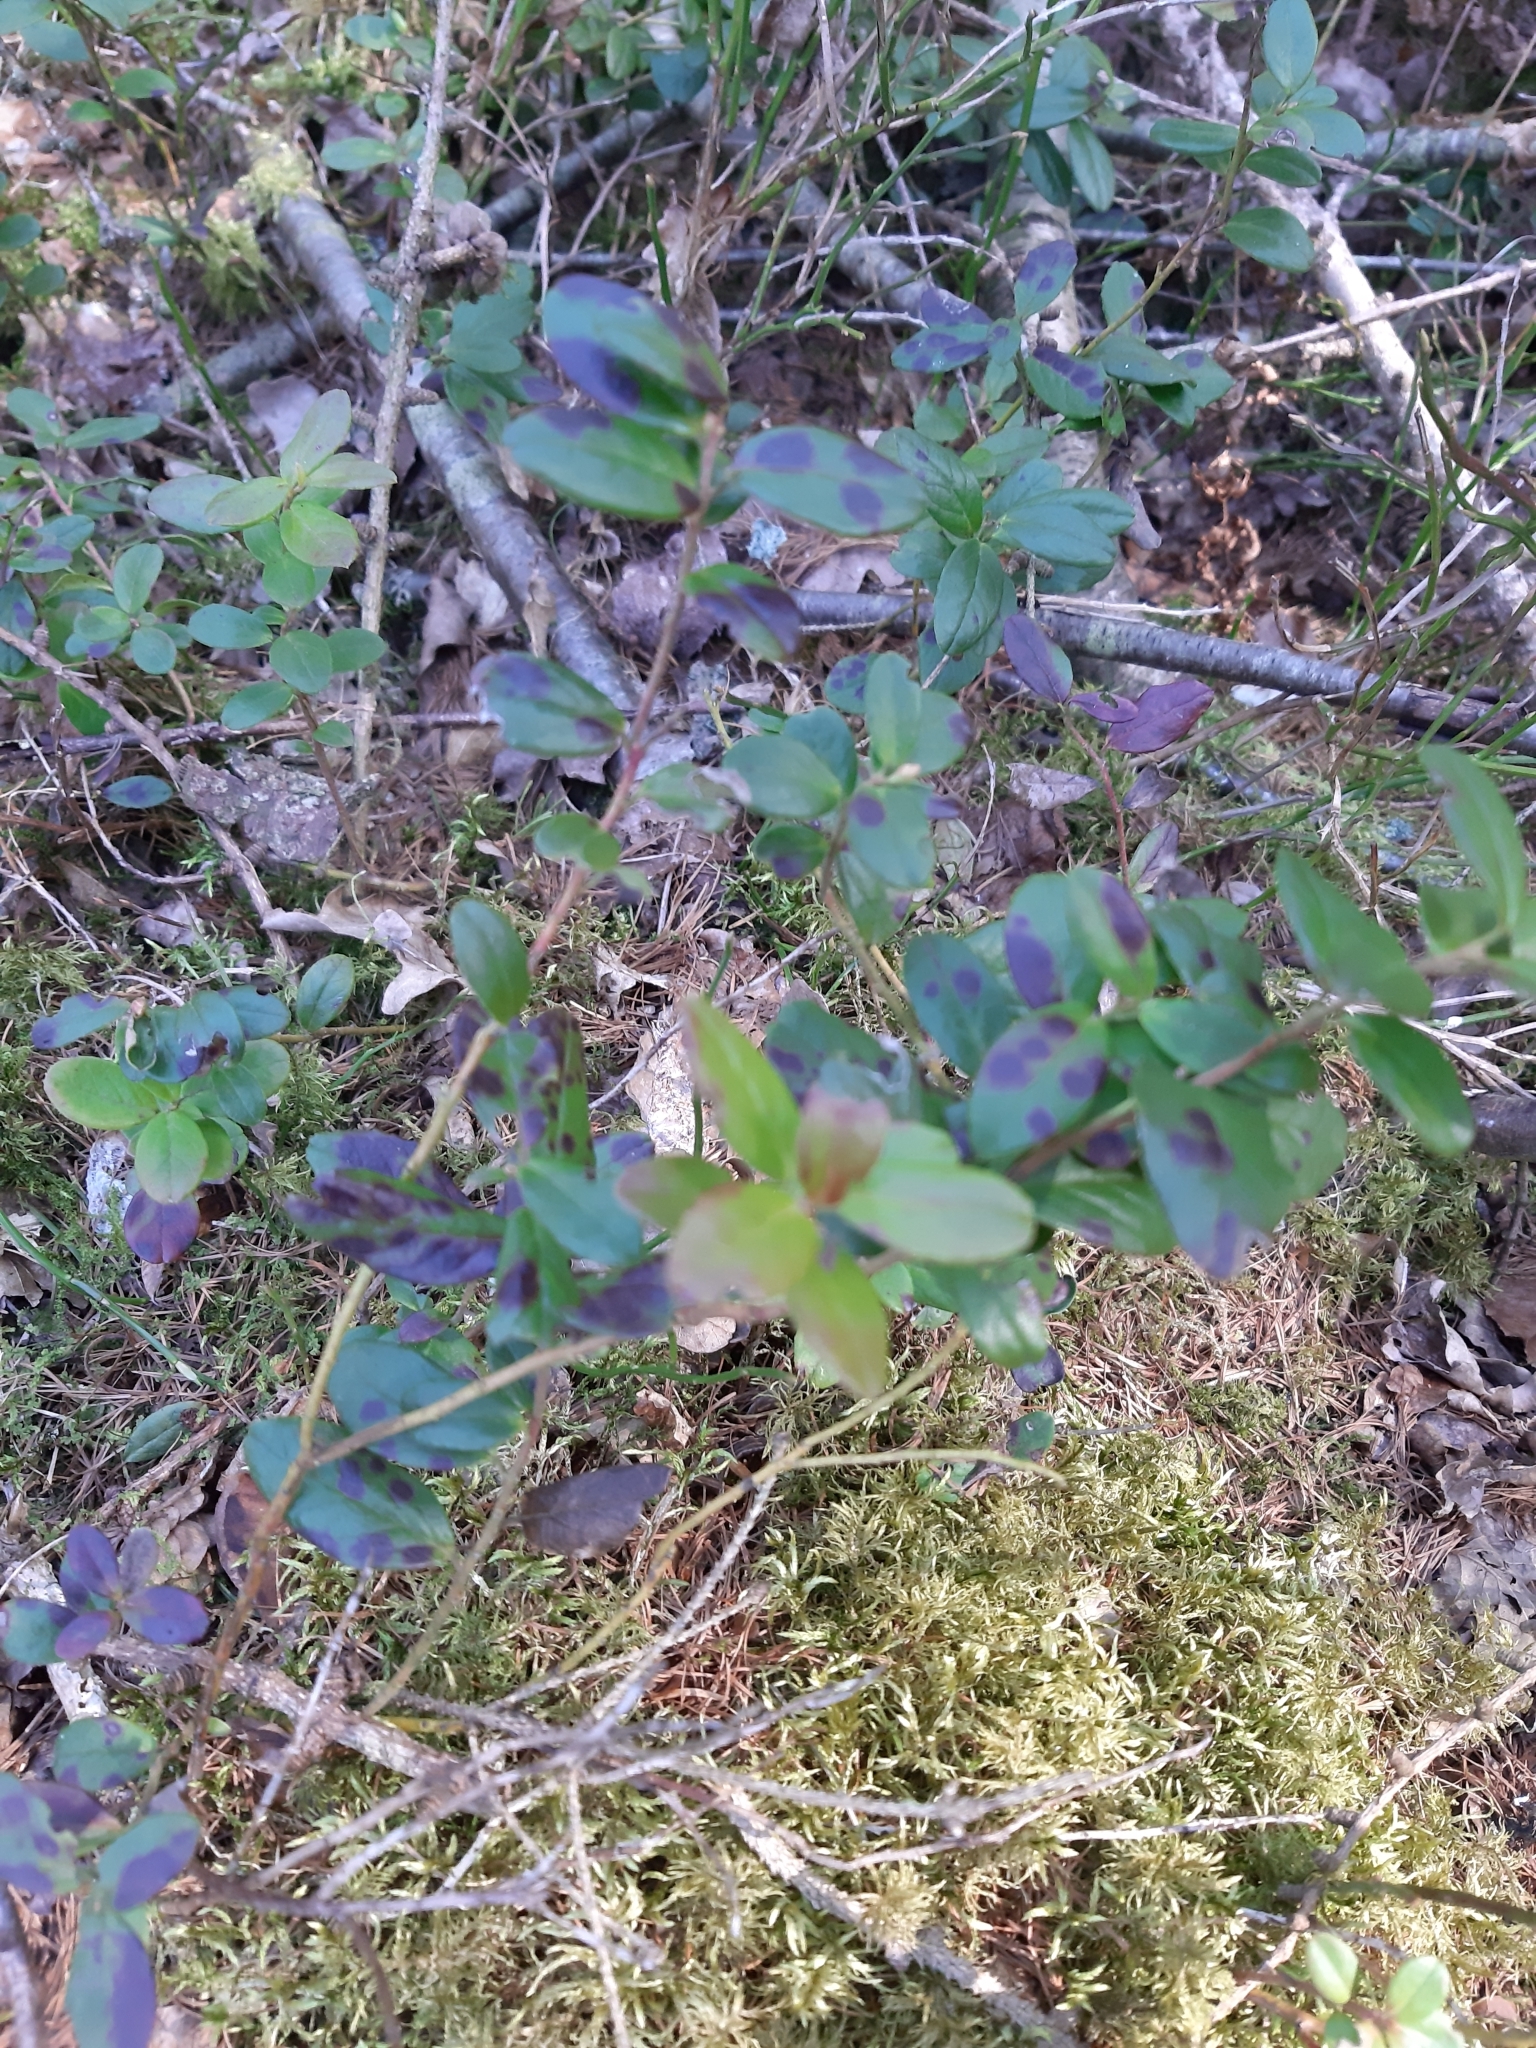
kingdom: Plantae
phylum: Tracheophyta
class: Magnoliopsida
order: Ericales
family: Ericaceae
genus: Vaccinium
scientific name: Vaccinium vitis-idaea
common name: Cowberry
